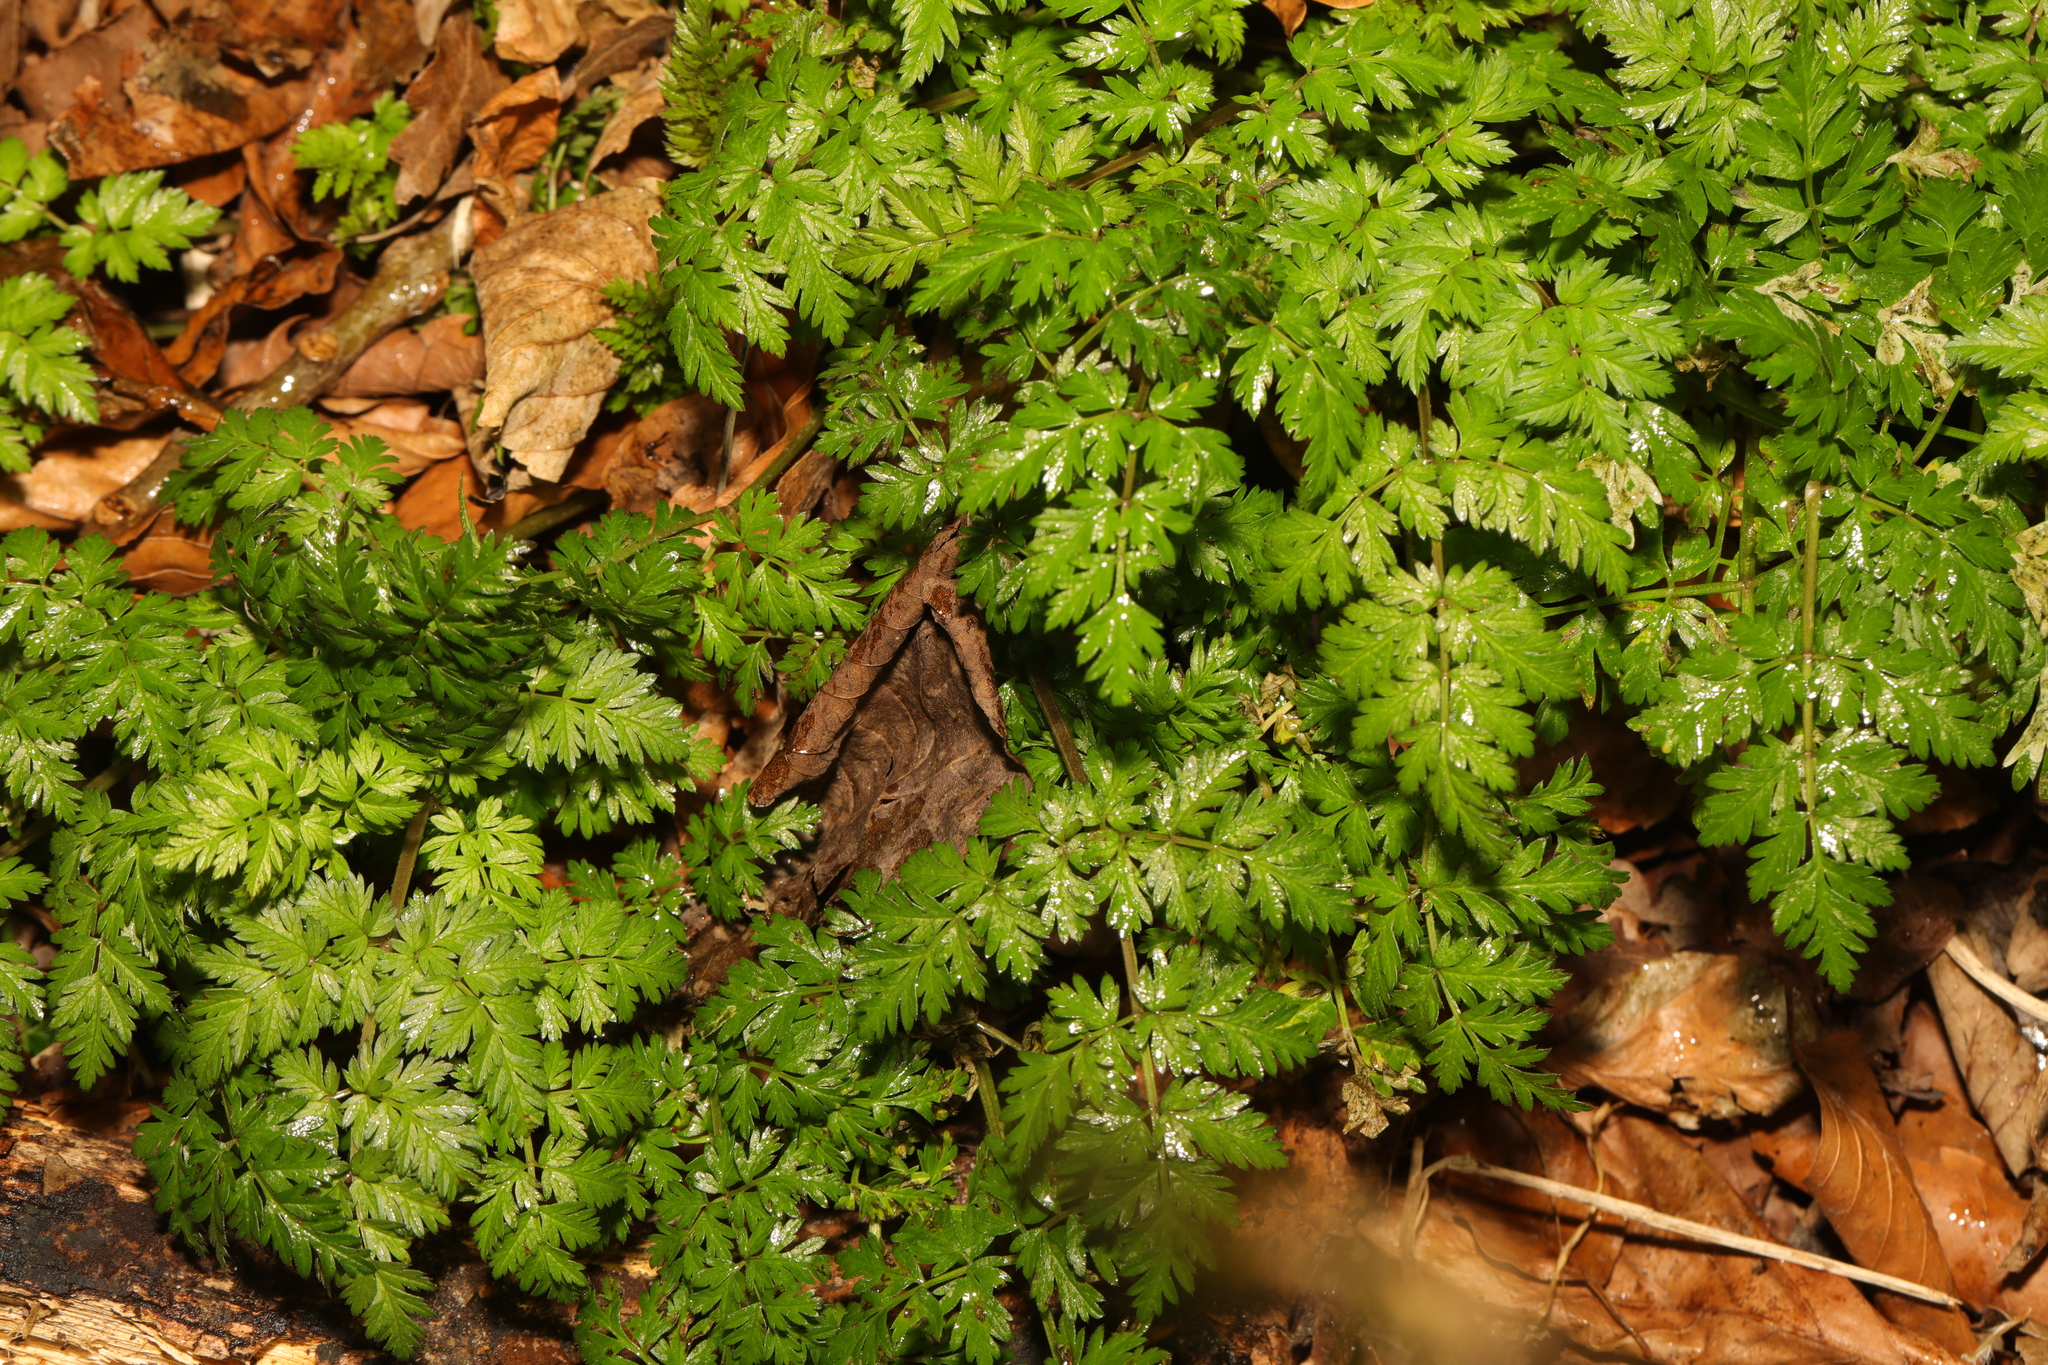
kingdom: Plantae
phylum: Tracheophyta
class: Magnoliopsida
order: Apiales
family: Apiaceae
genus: Myrrhis
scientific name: Myrrhis odorata
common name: Sweet cicely
